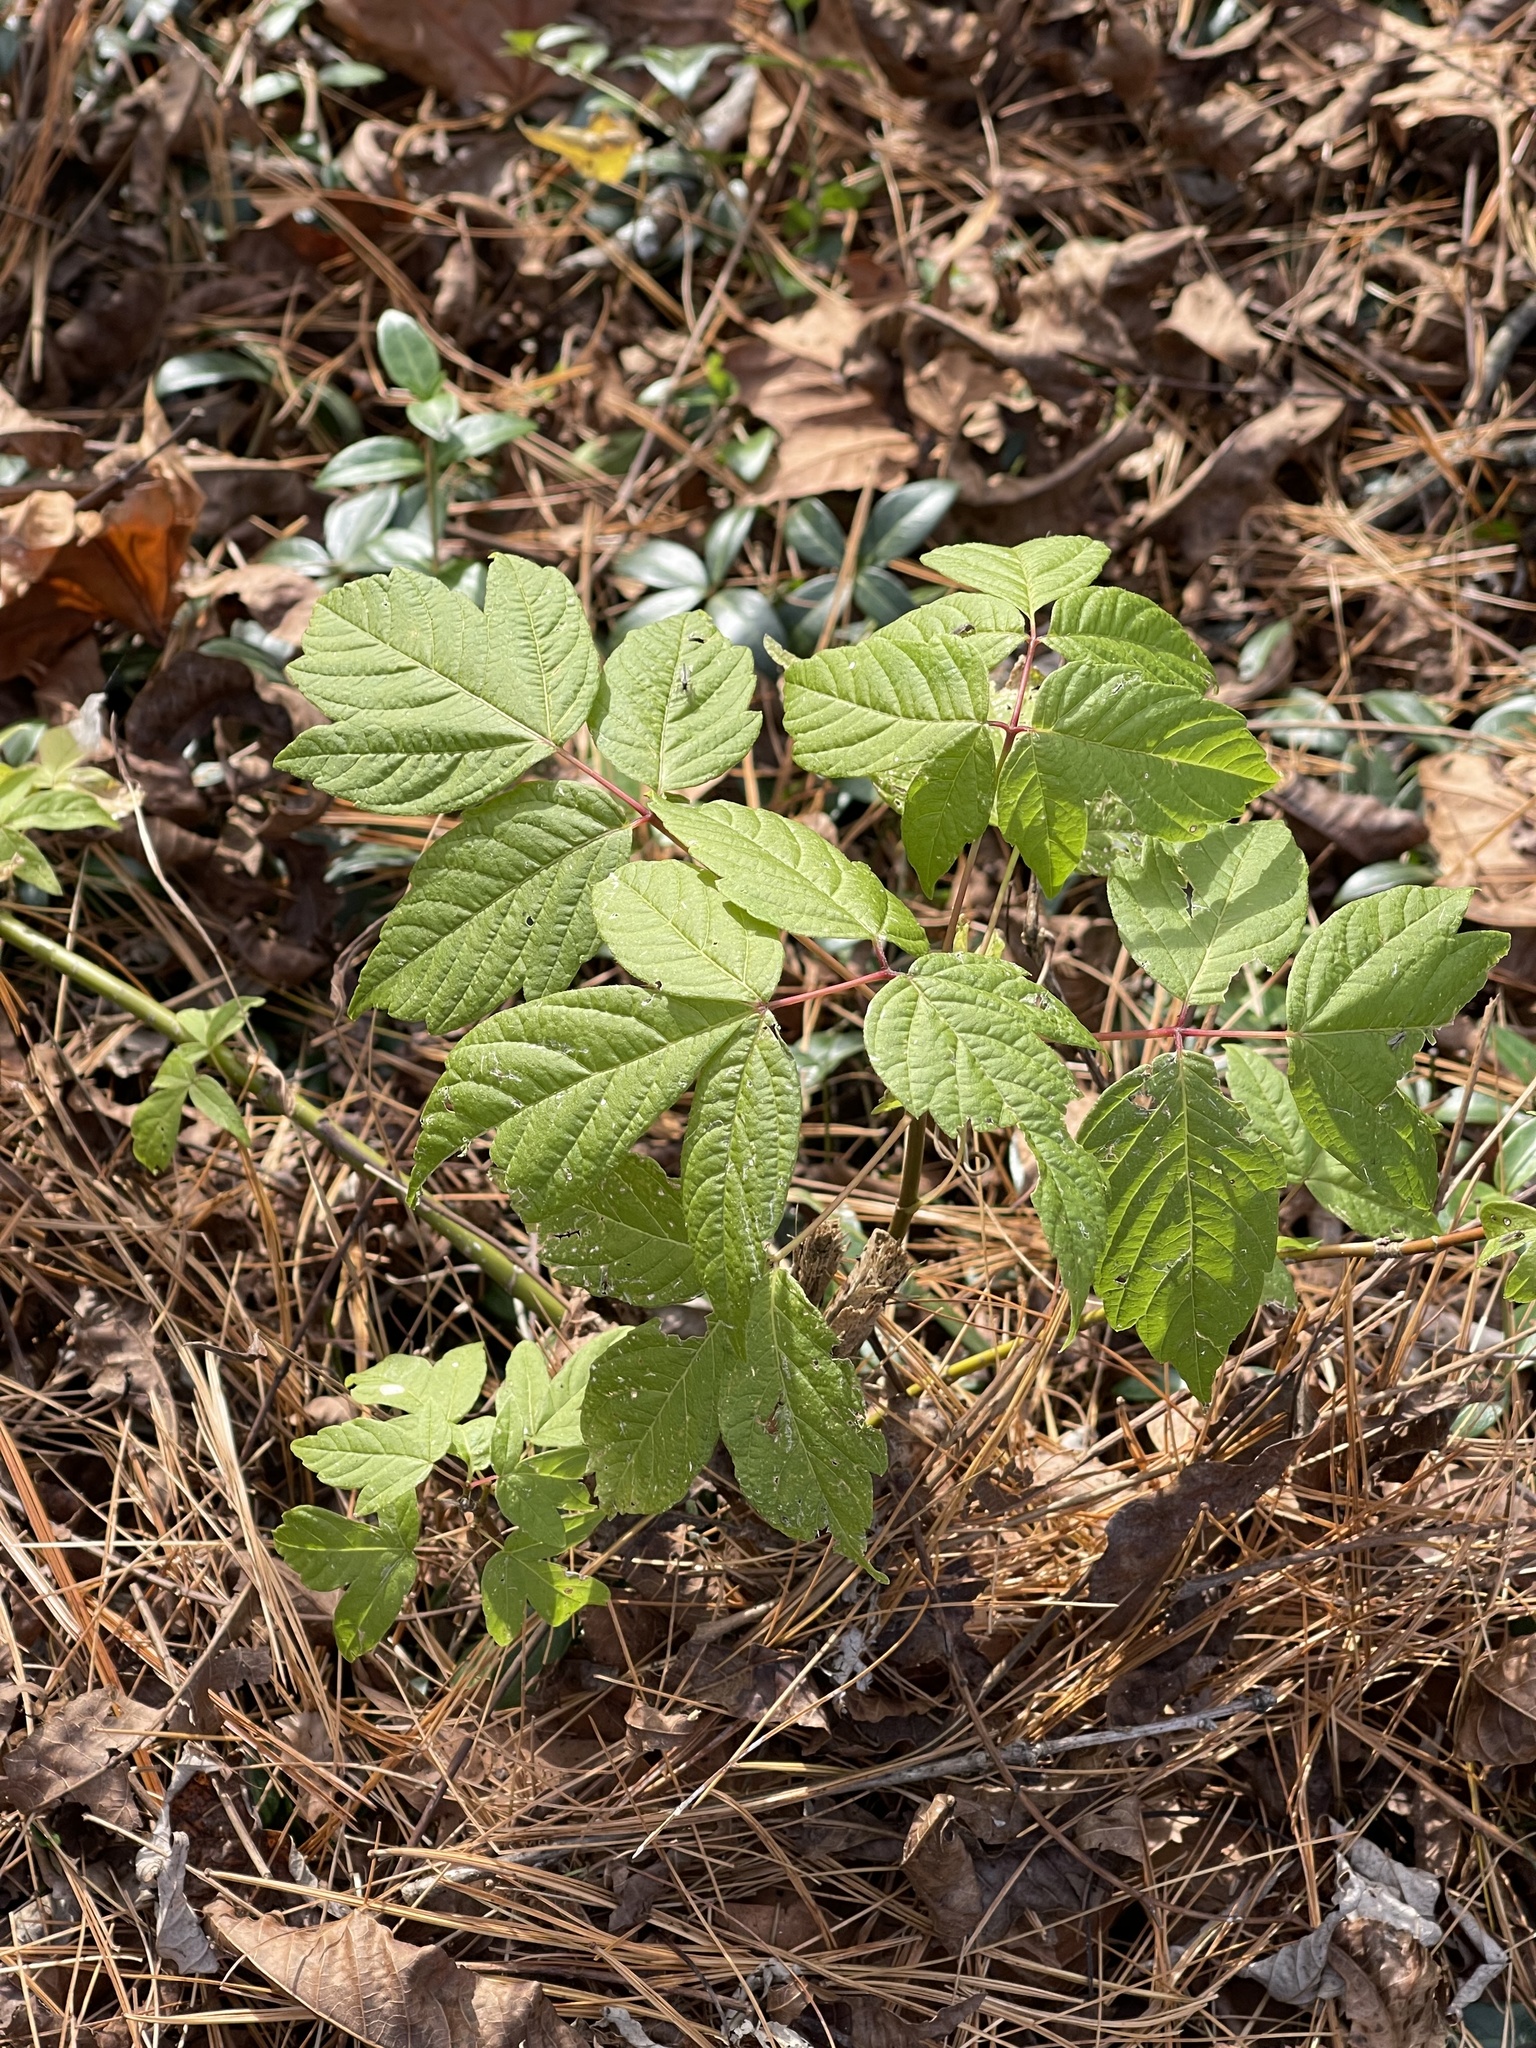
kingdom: Plantae
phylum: Tracheophyta
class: Magnoliopsida
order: Sapindales
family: Sapindaceae
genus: Acer
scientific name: Acer negundo
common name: Ashleaf maple
